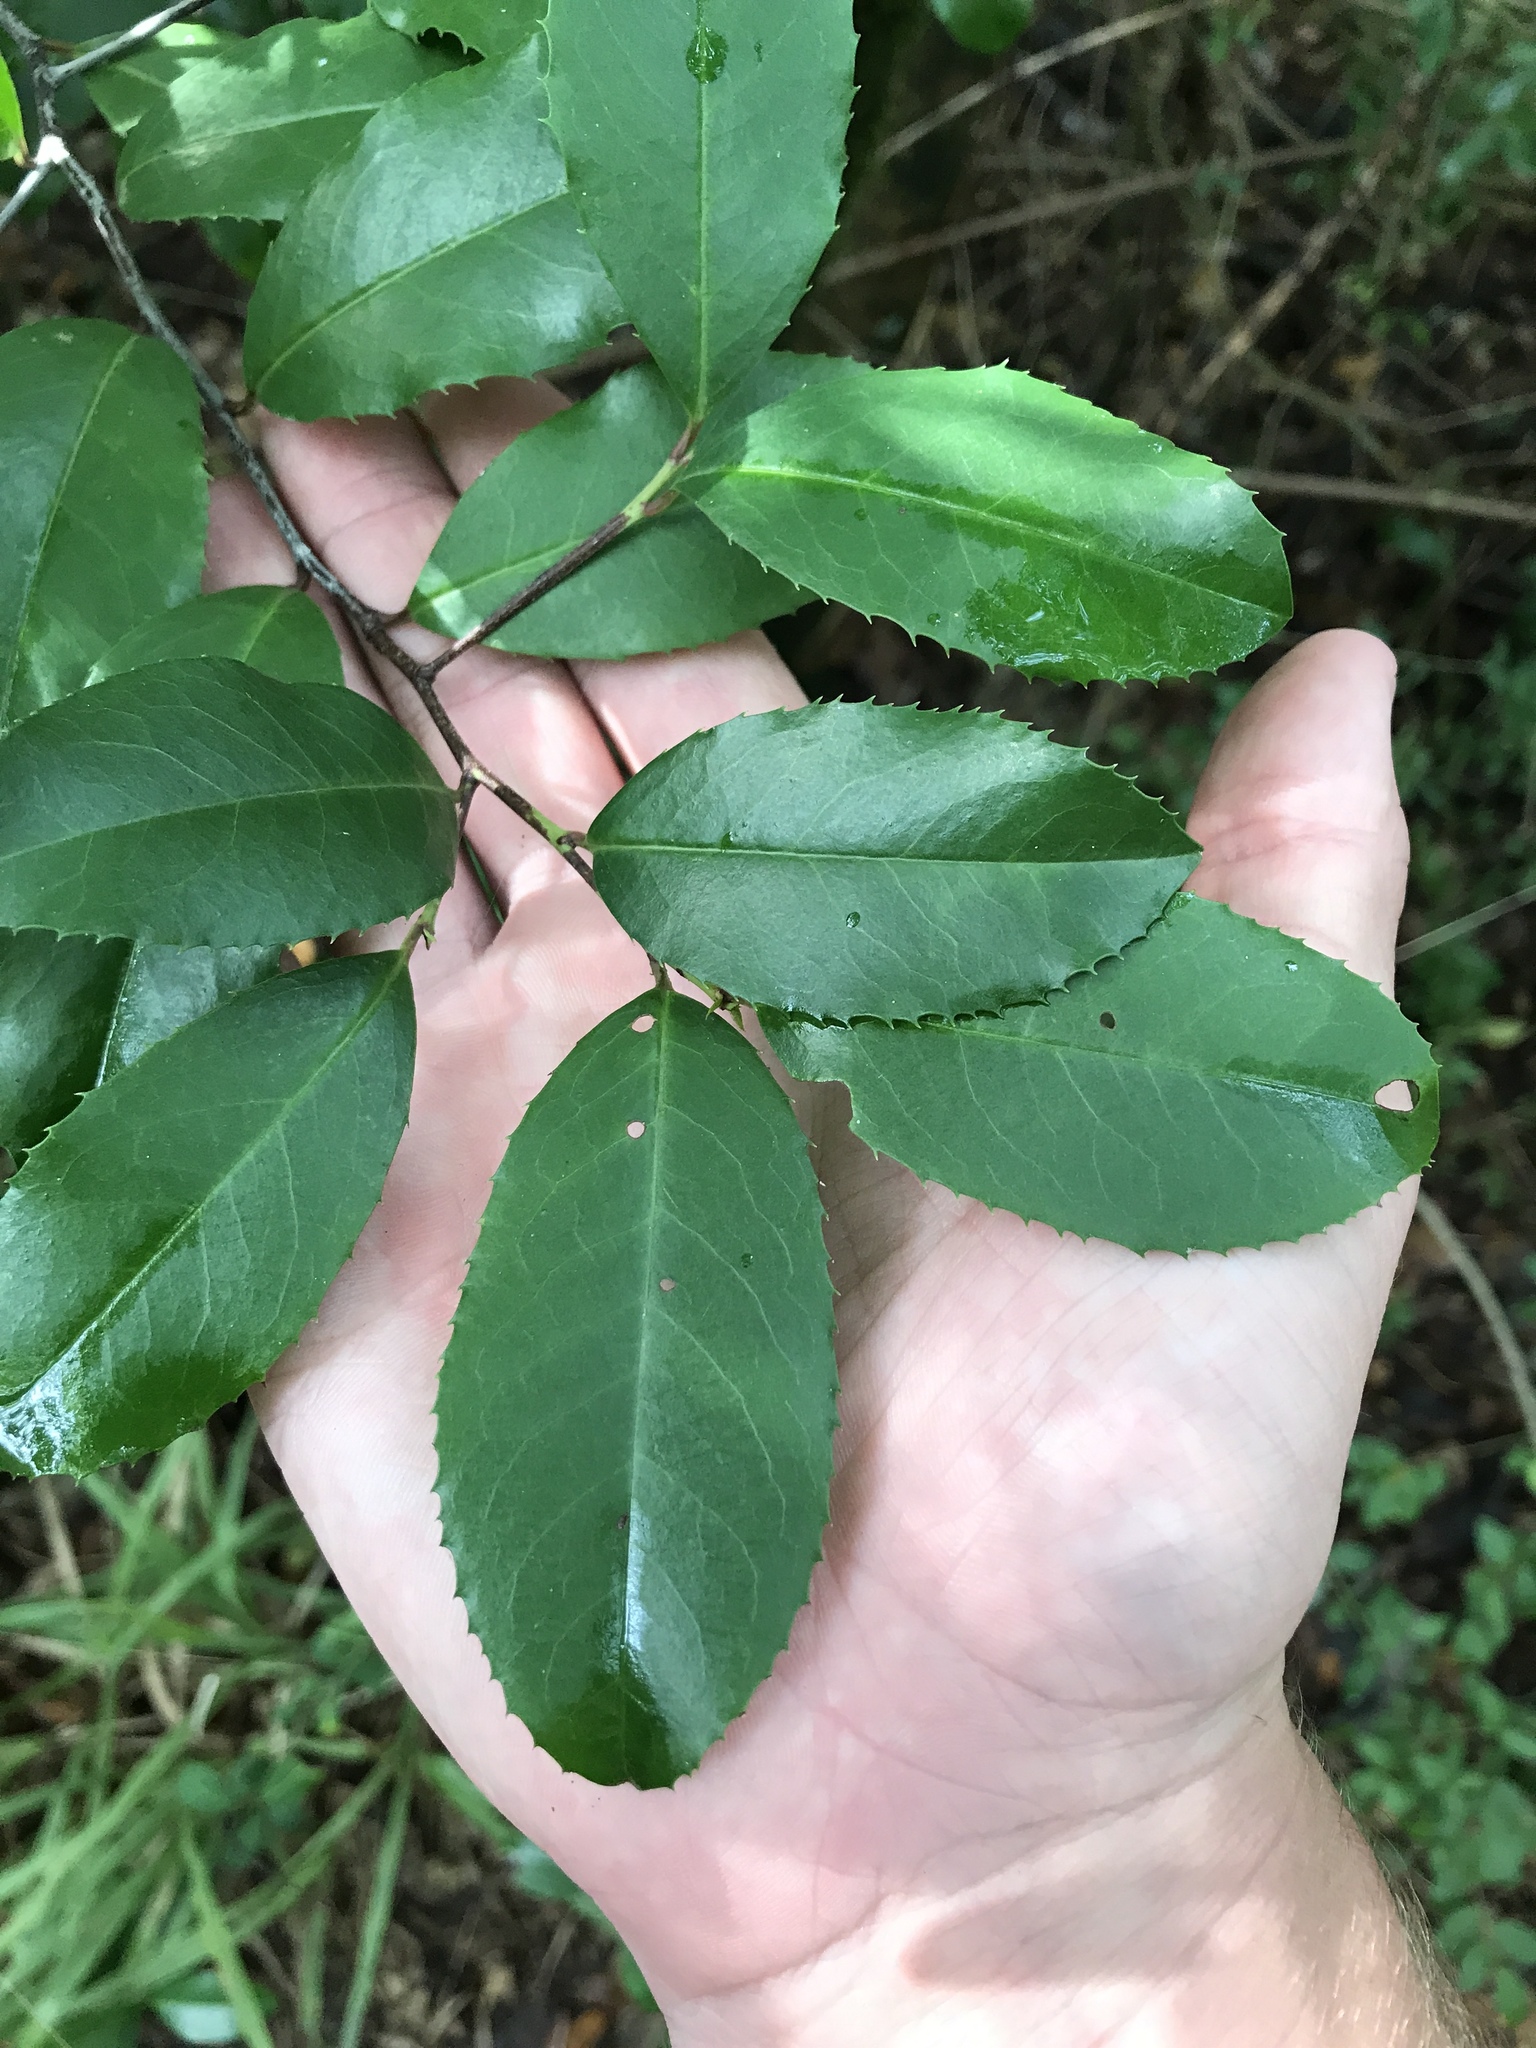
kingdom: Plantae
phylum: Tracheophyta
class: Magnoliopsida
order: Rosales
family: Rosaceae
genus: Prunus
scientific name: Prunus caroliniana
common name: Carolina laurel cherry
